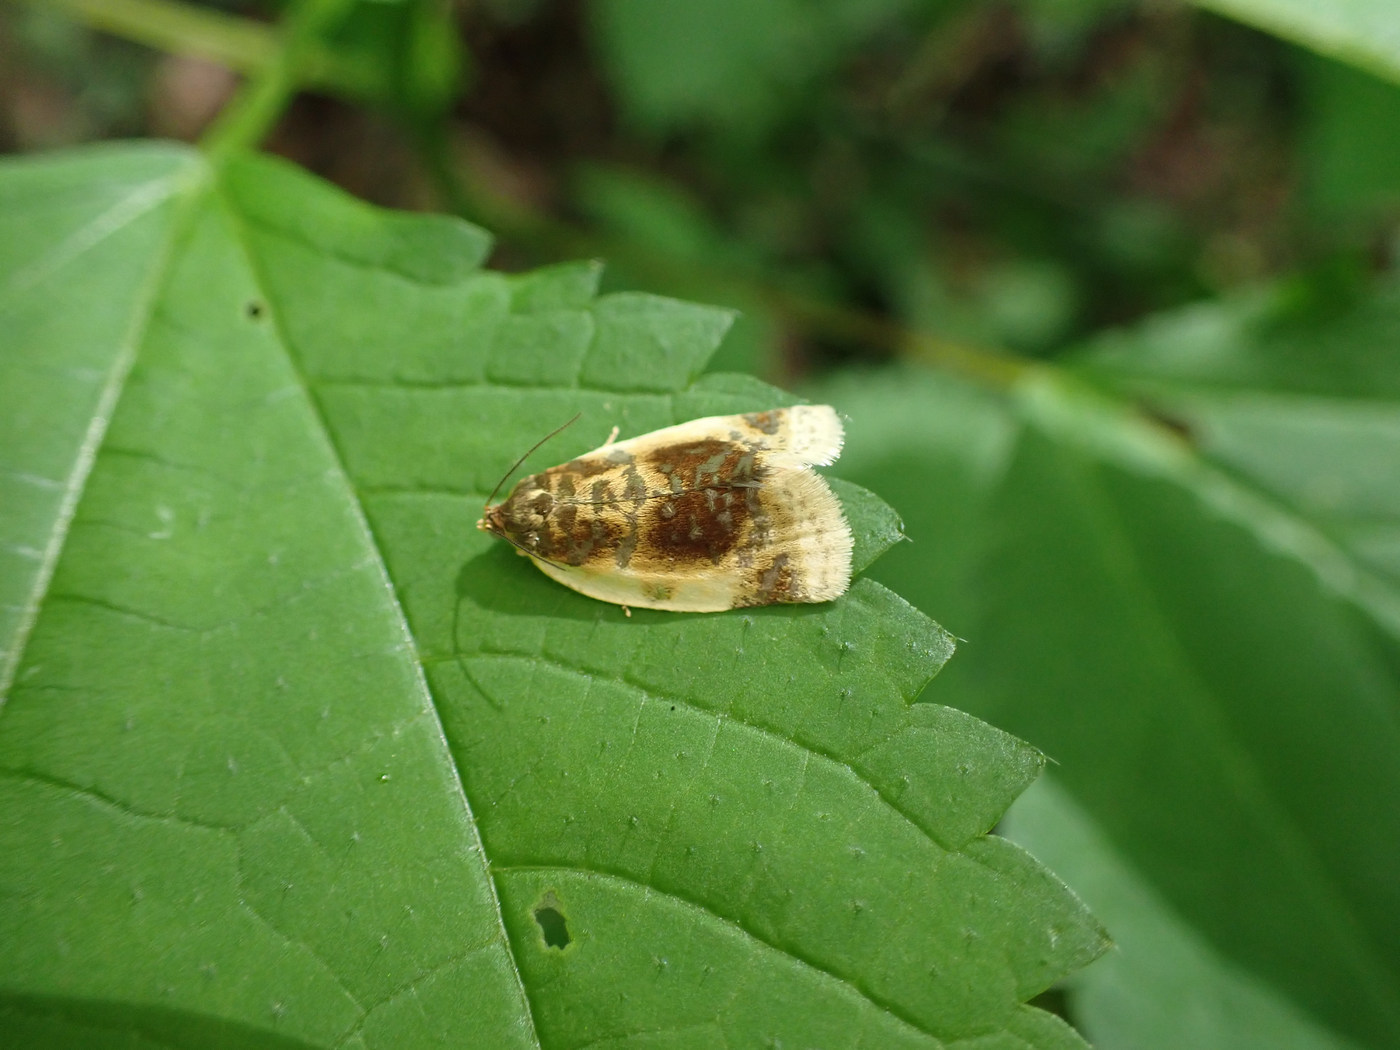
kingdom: Animalia
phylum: Arthropoda
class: Insecta
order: Lepidoptera
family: Tortricidae
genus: Clepsis
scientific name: Clepsis melaleucanus
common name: American apple tortrix
